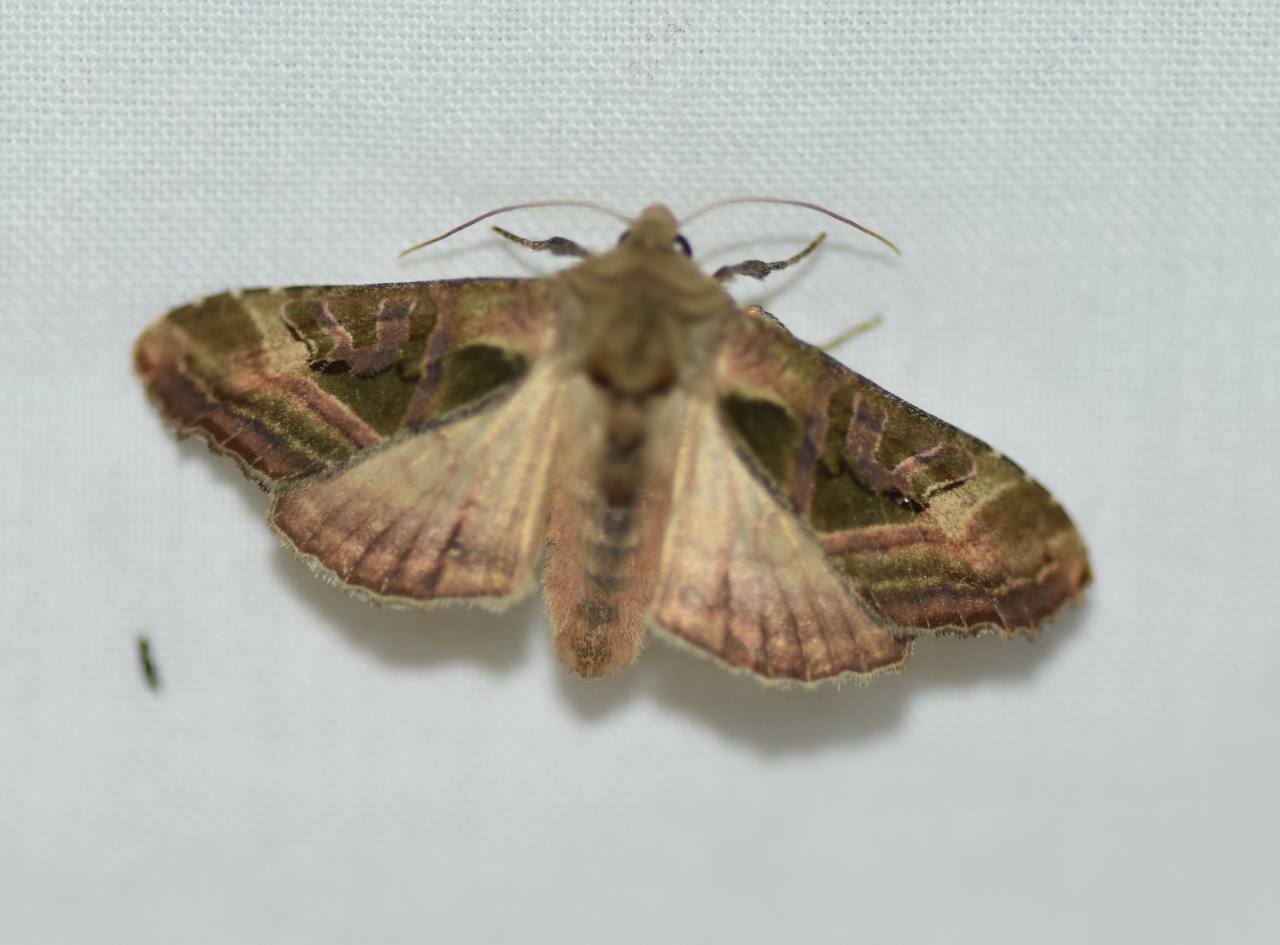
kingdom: Animalia
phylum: Arthropoda
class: Insecta
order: Lepidoptera
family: Noctuidae
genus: Phlogophora
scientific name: Phlogophora iris
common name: Olive angle shades
